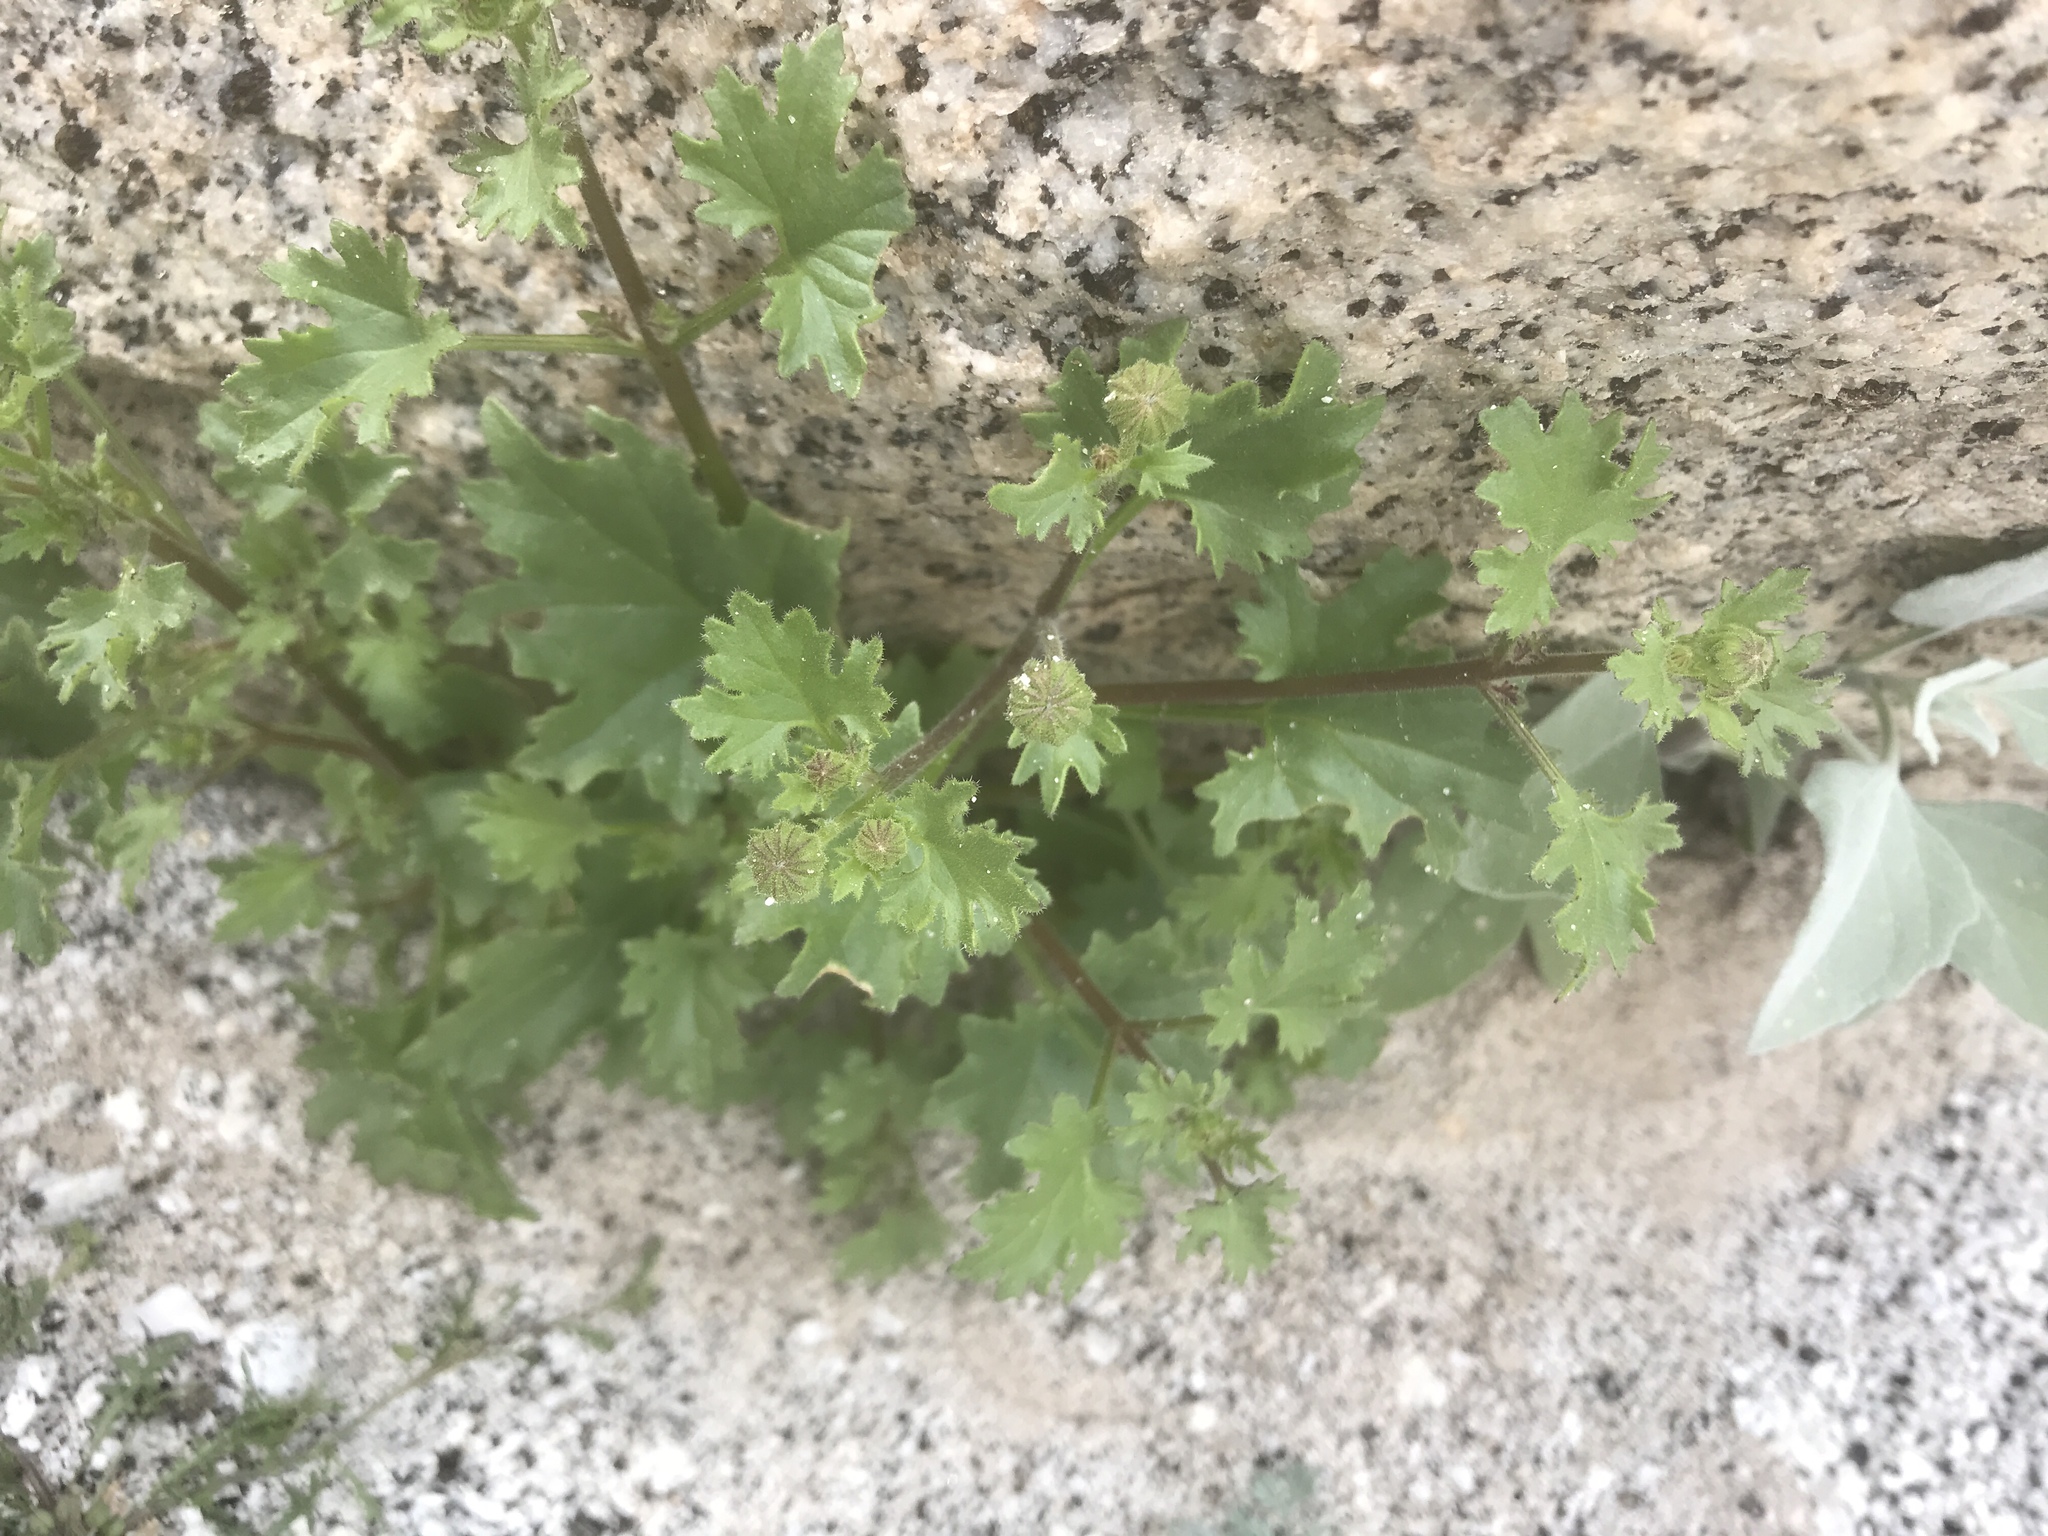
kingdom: Plantae
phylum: Tracheophyta
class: Magnoliopsida
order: Asterales
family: Asteraceae
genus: Laphamia
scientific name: Laphamia emoryi
